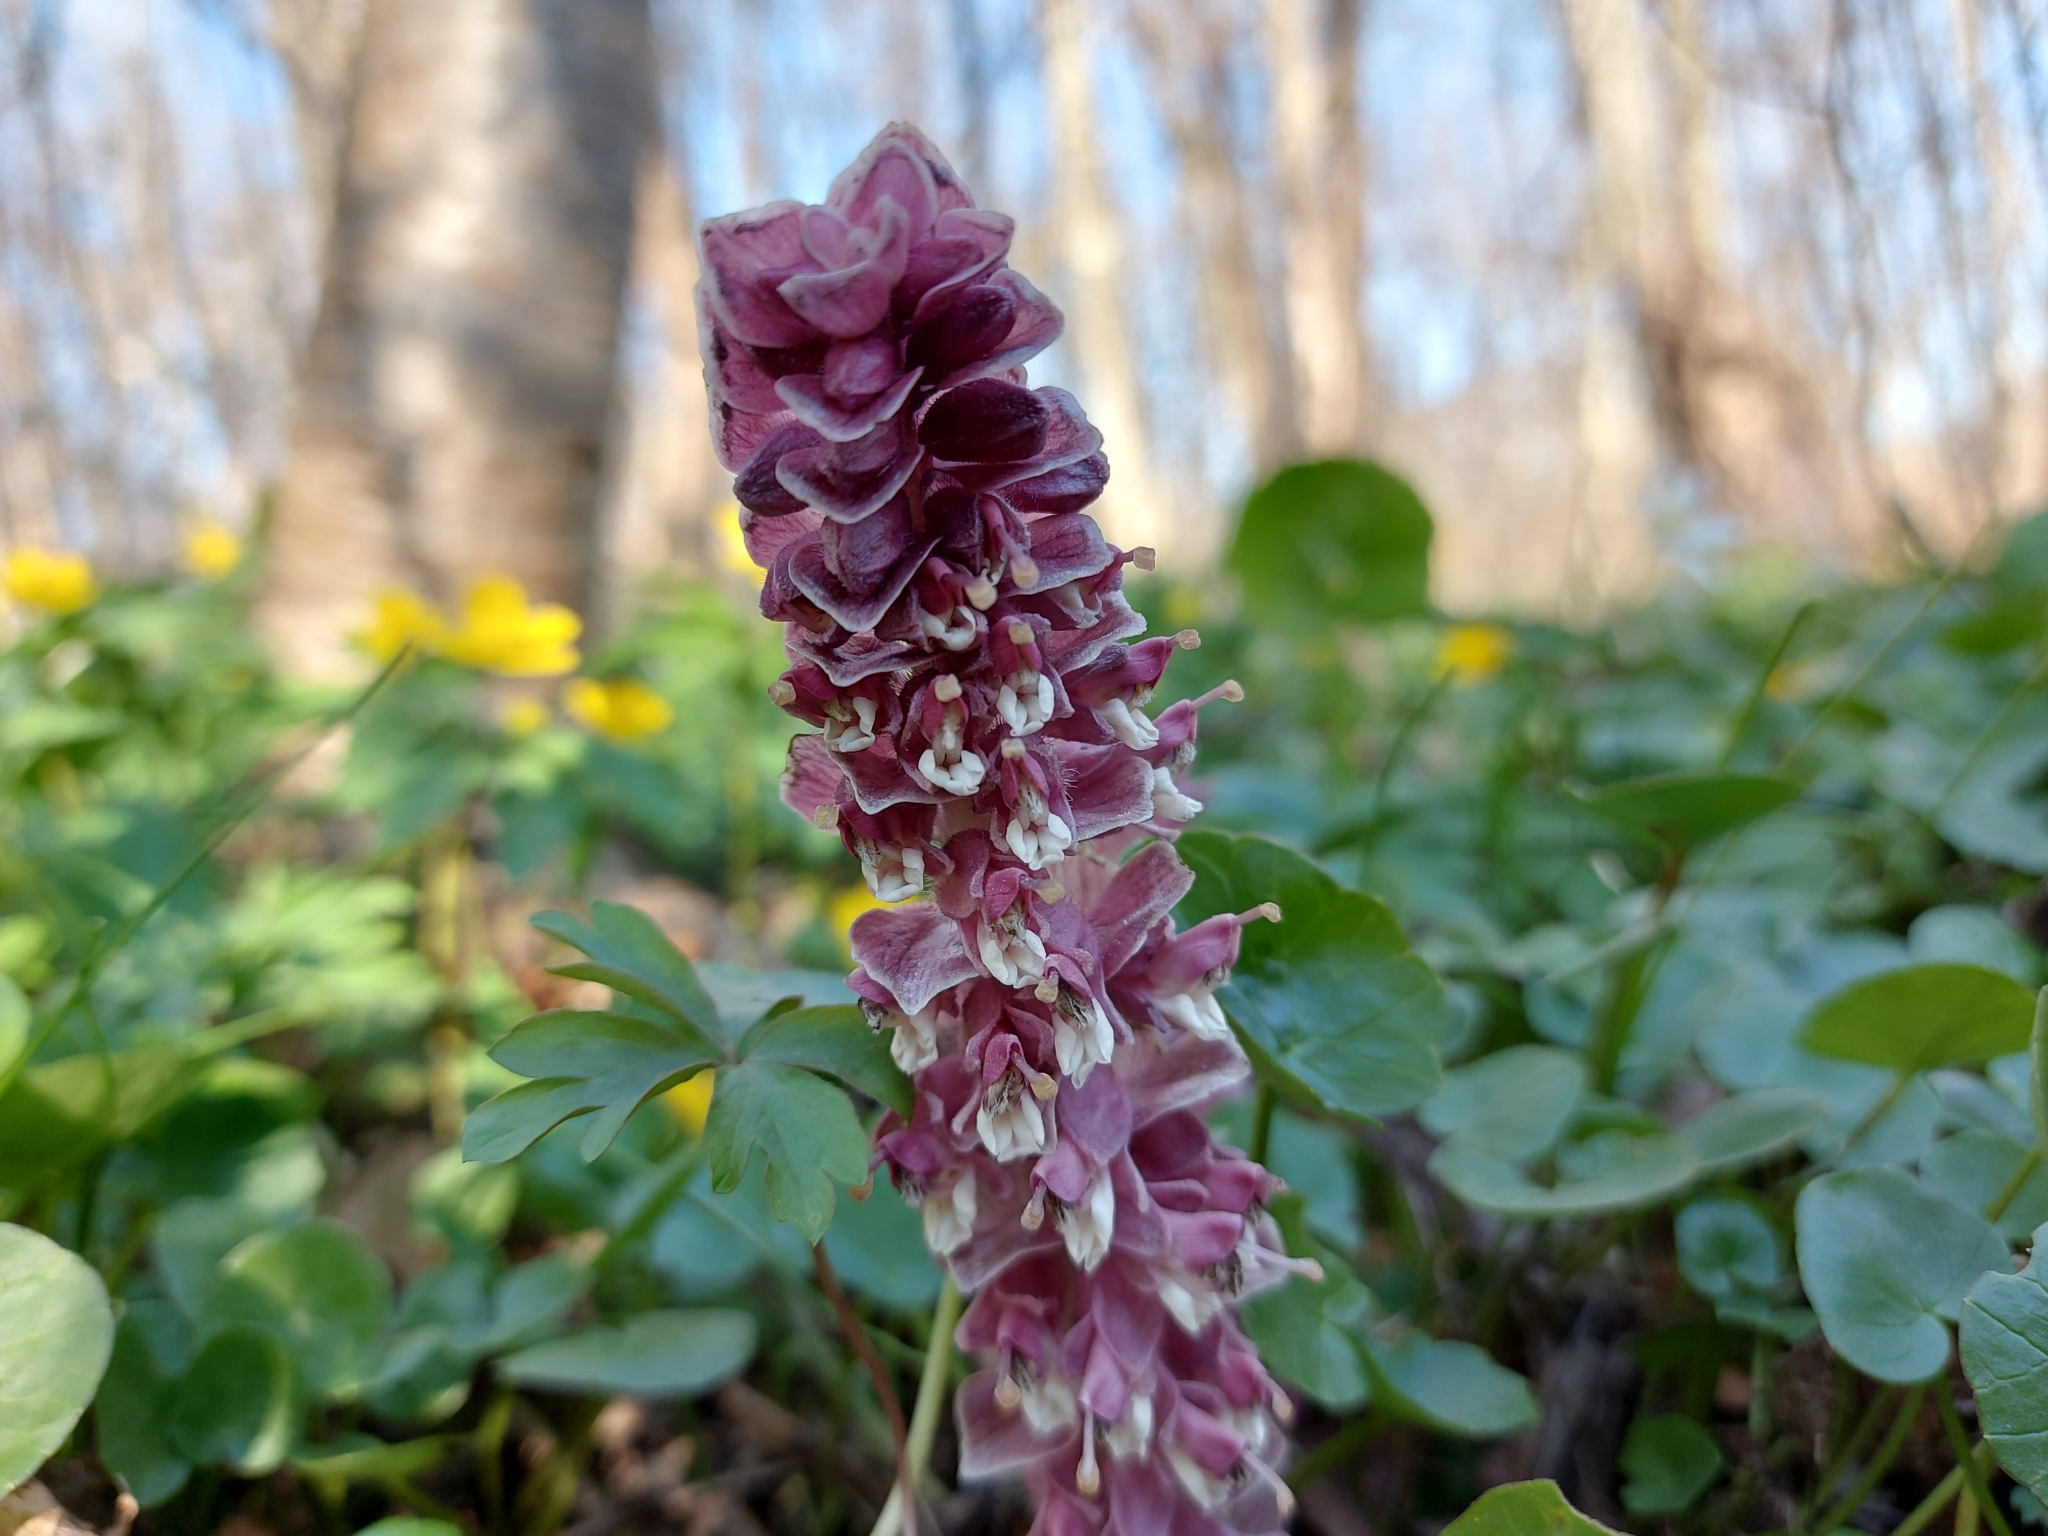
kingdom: Plantae
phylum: Tracheophyta
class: Magnoliopsida
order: Lamiales
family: Orobanchaceae
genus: Lathraea
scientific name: Lathraea squamaria
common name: Toothwort
